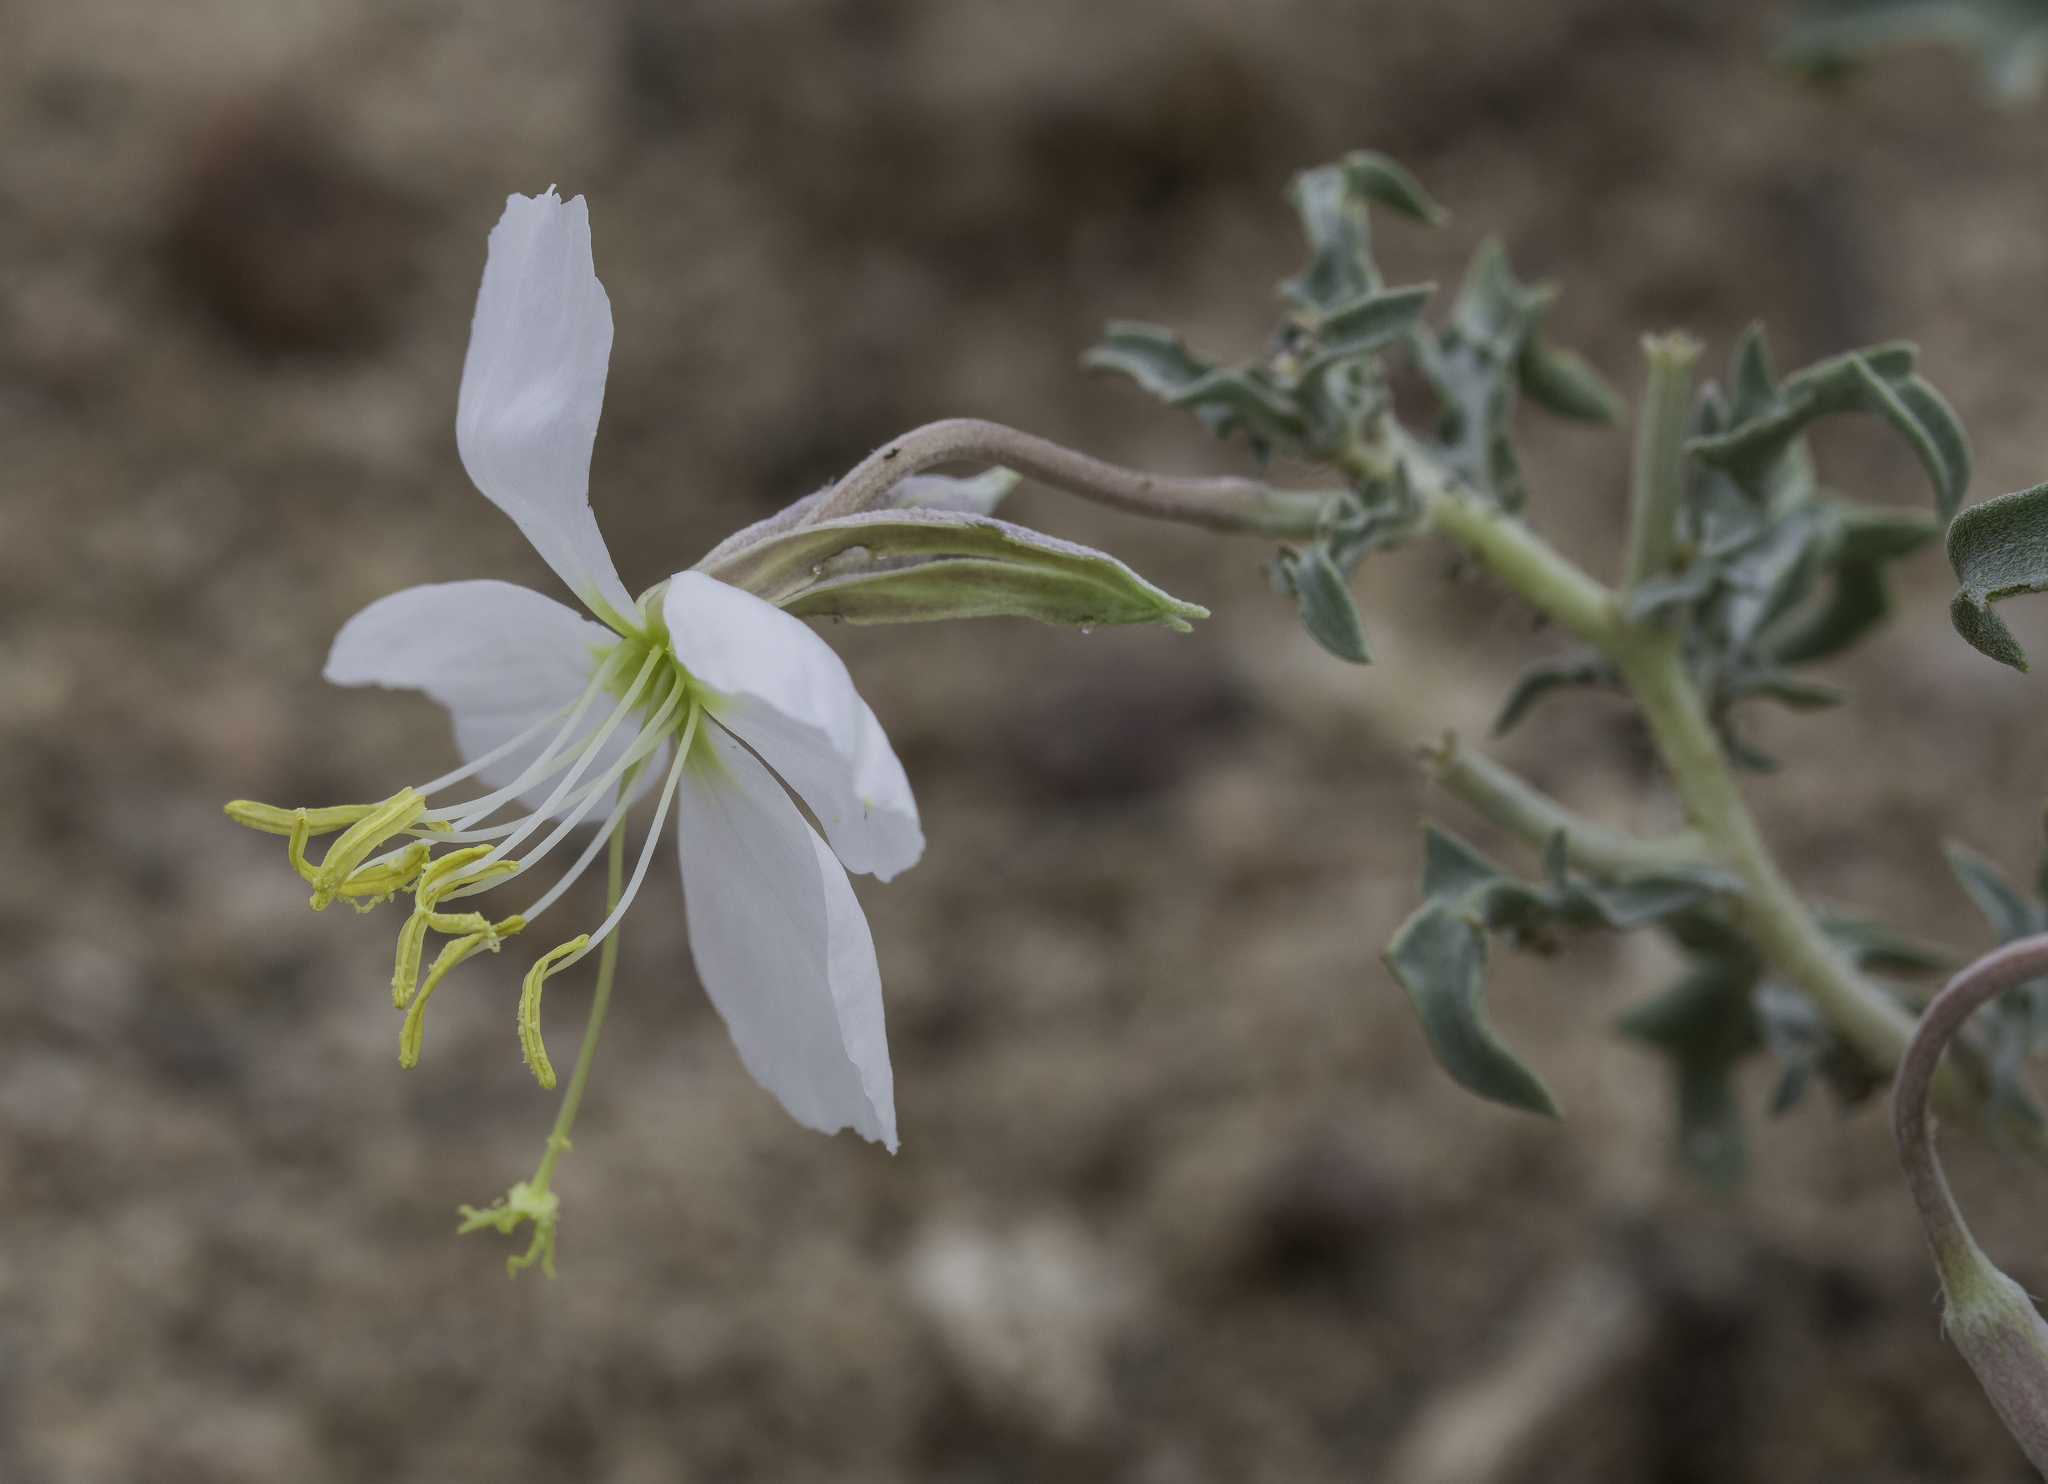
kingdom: Plantae
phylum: Tracheophyta
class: Magnoliopsida
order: Myrtales
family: Onagraceae
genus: Oenothera
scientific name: Oenothera pallida
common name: Pale evening-primrose
